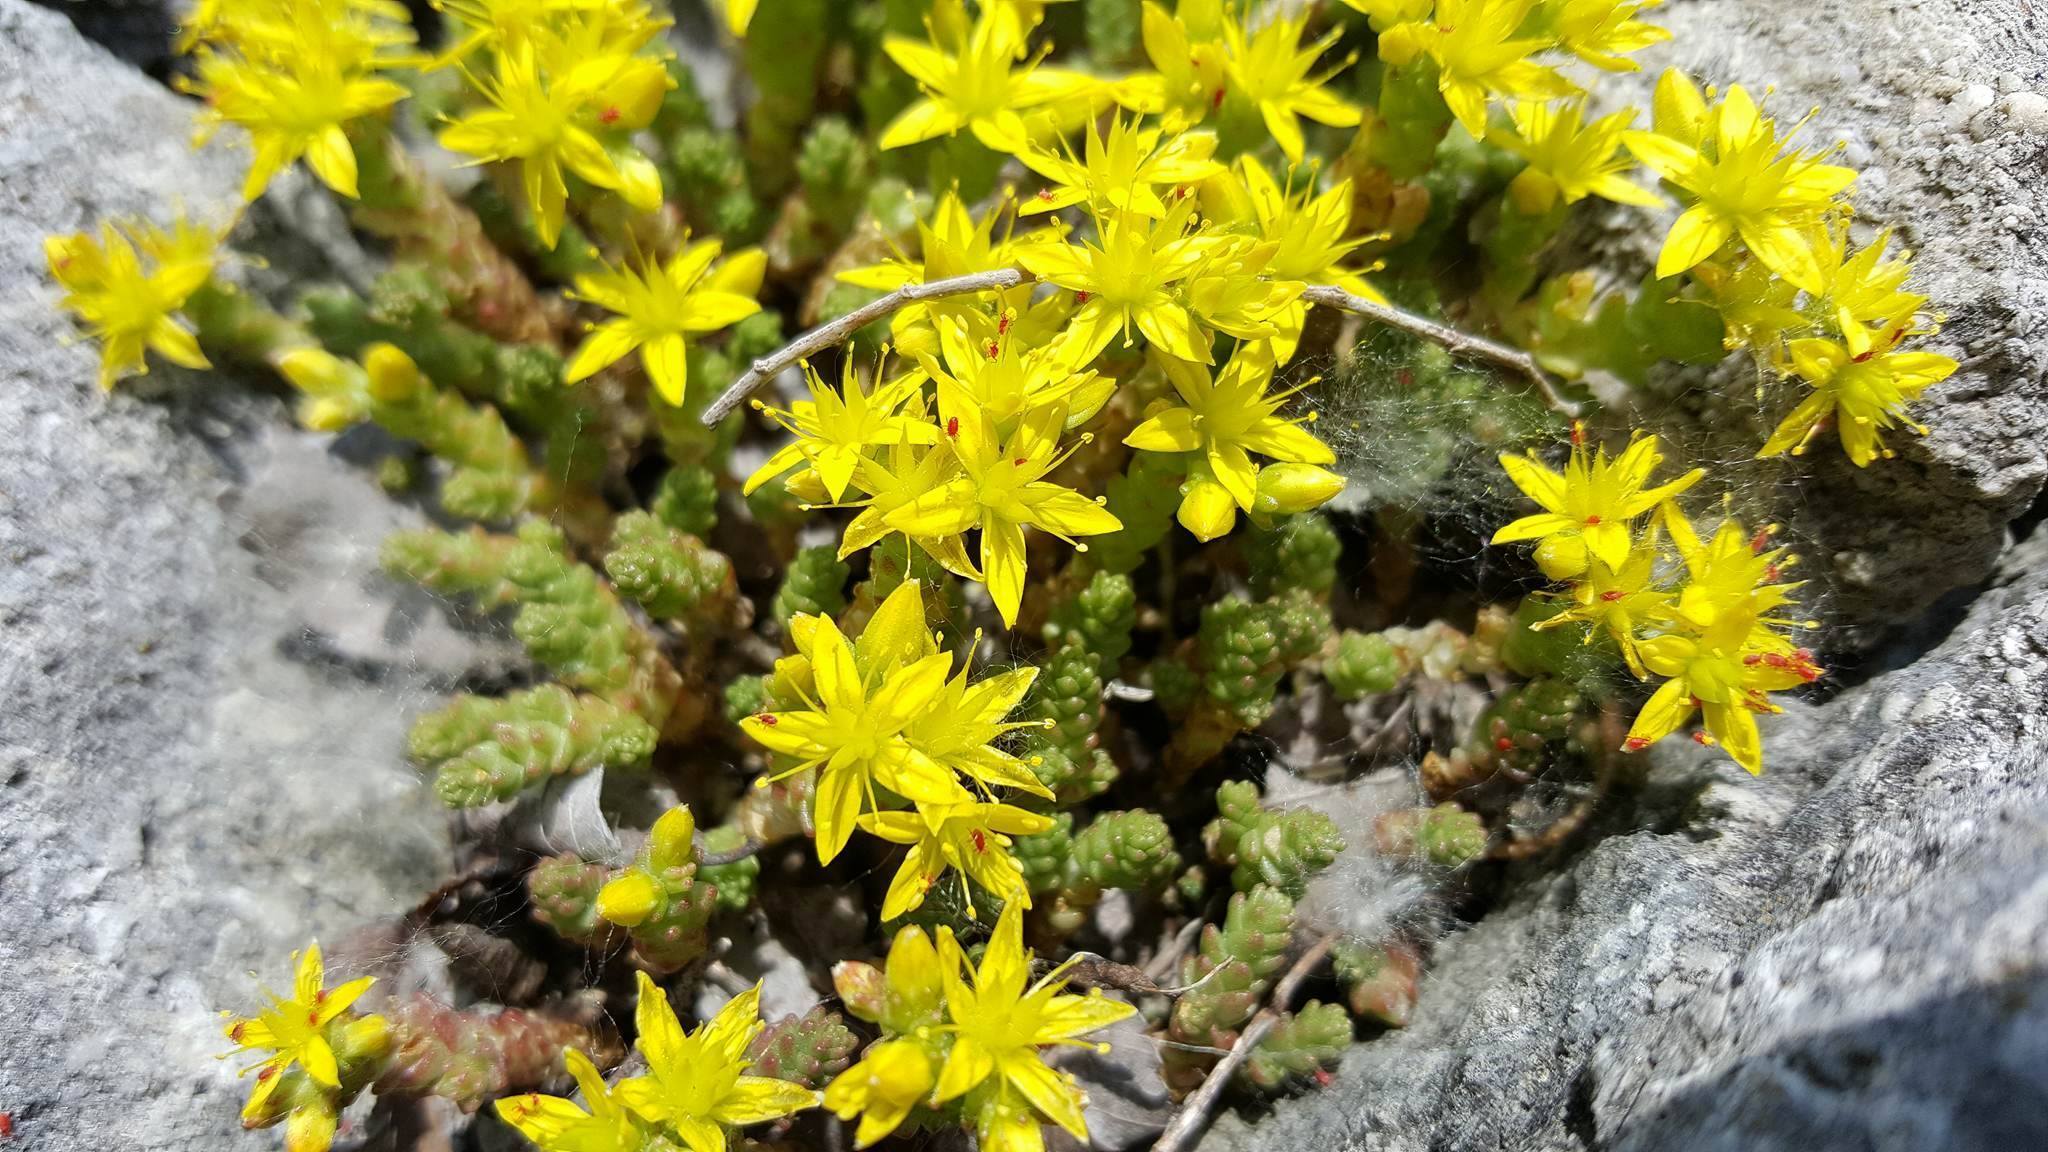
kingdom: Plantae
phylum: Tracheophyta
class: Magnoliopsida
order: Saxifragales
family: Crassulaceae
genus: Sedum
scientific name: Sedum acre
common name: Biting stonecrop
